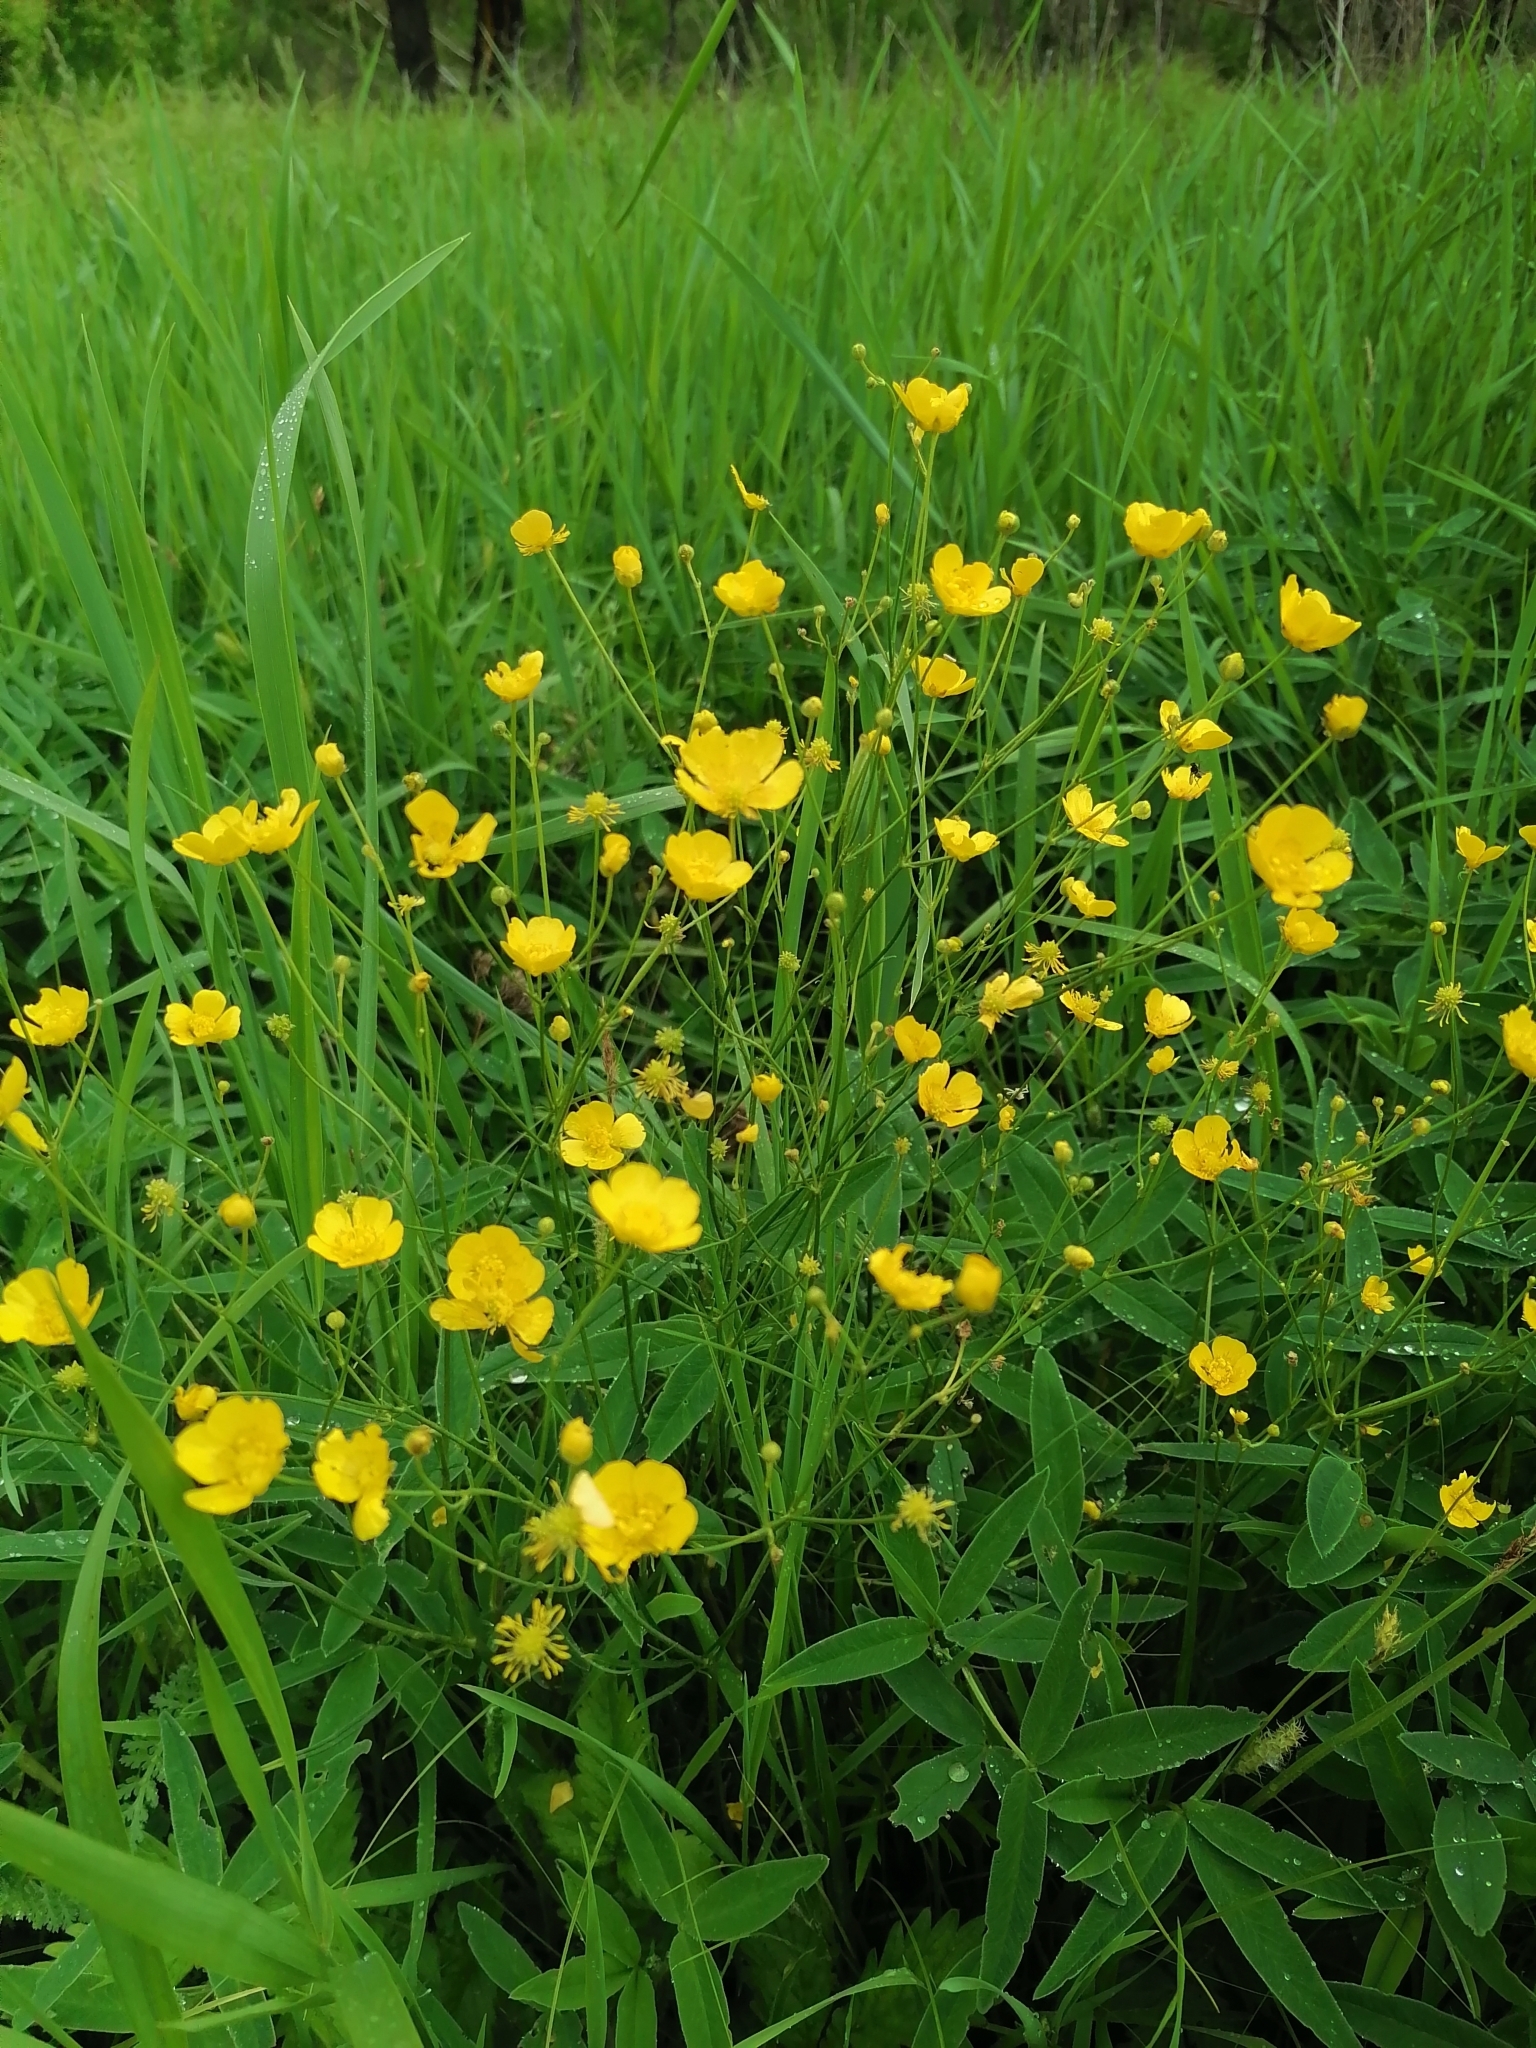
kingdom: Plantae
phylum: Tracheophyta
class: Magnoliopsida
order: Ranunculales
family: Ranunculaceae
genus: Ranunculus
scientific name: Ranunculus acris
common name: Meadow buttercup
